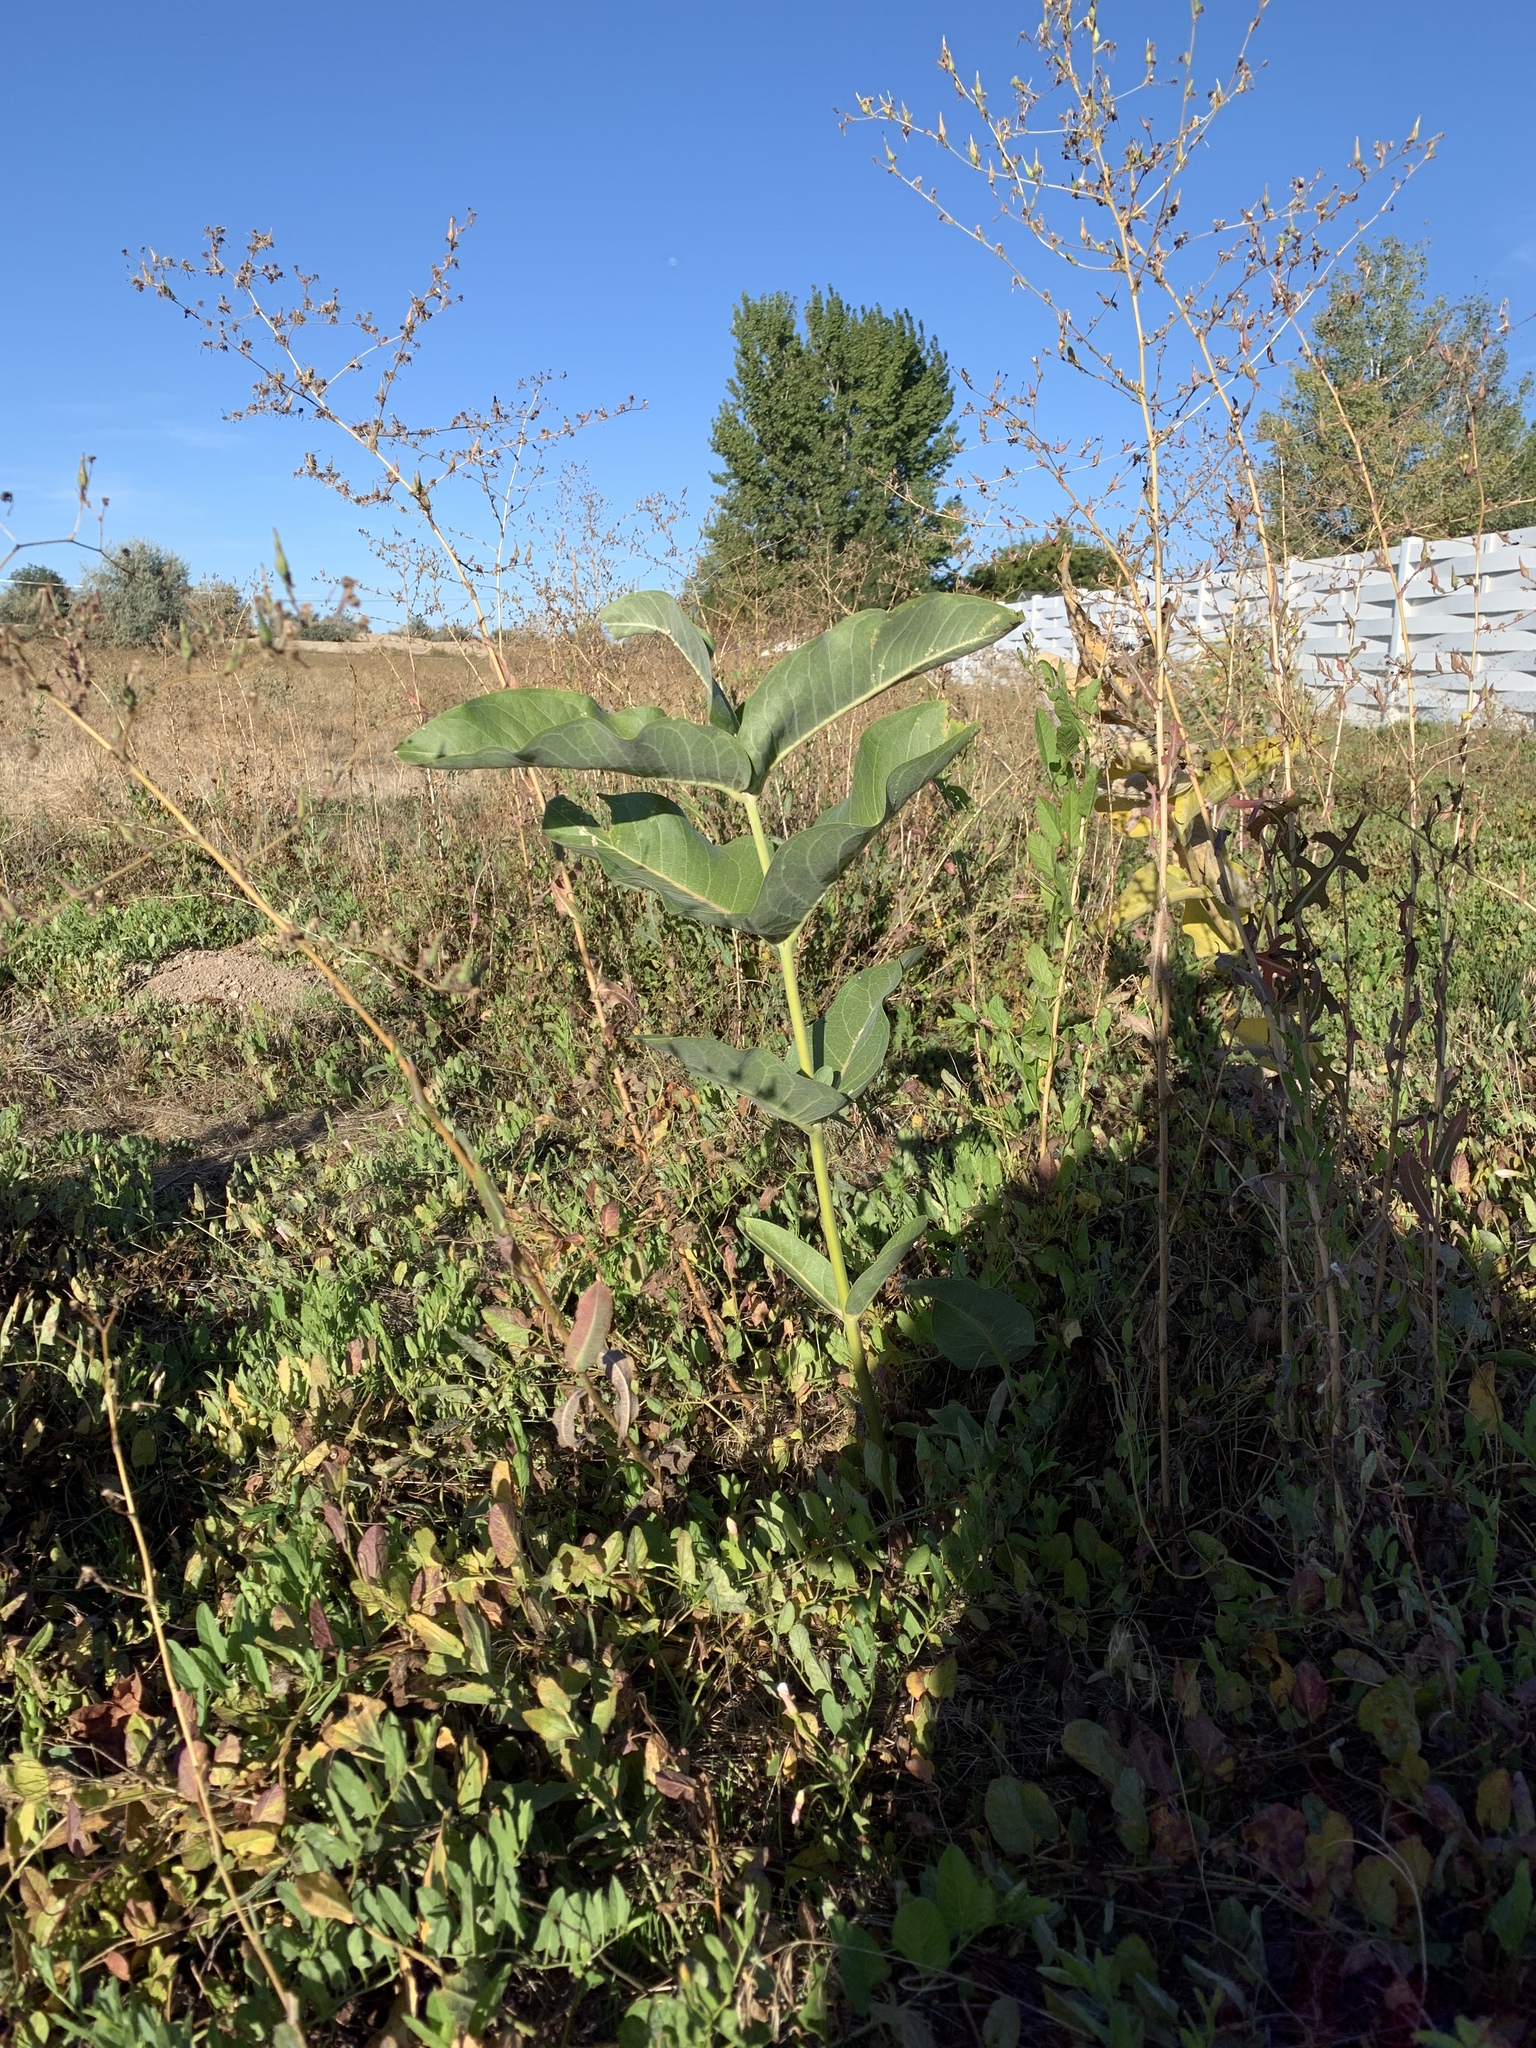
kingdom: Plantae
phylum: Tracheophyta
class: Magnoliopsida
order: Gentianales
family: Apocynaceae
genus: Asclepias
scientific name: Asclepias speciosa
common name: Showy milkweed
